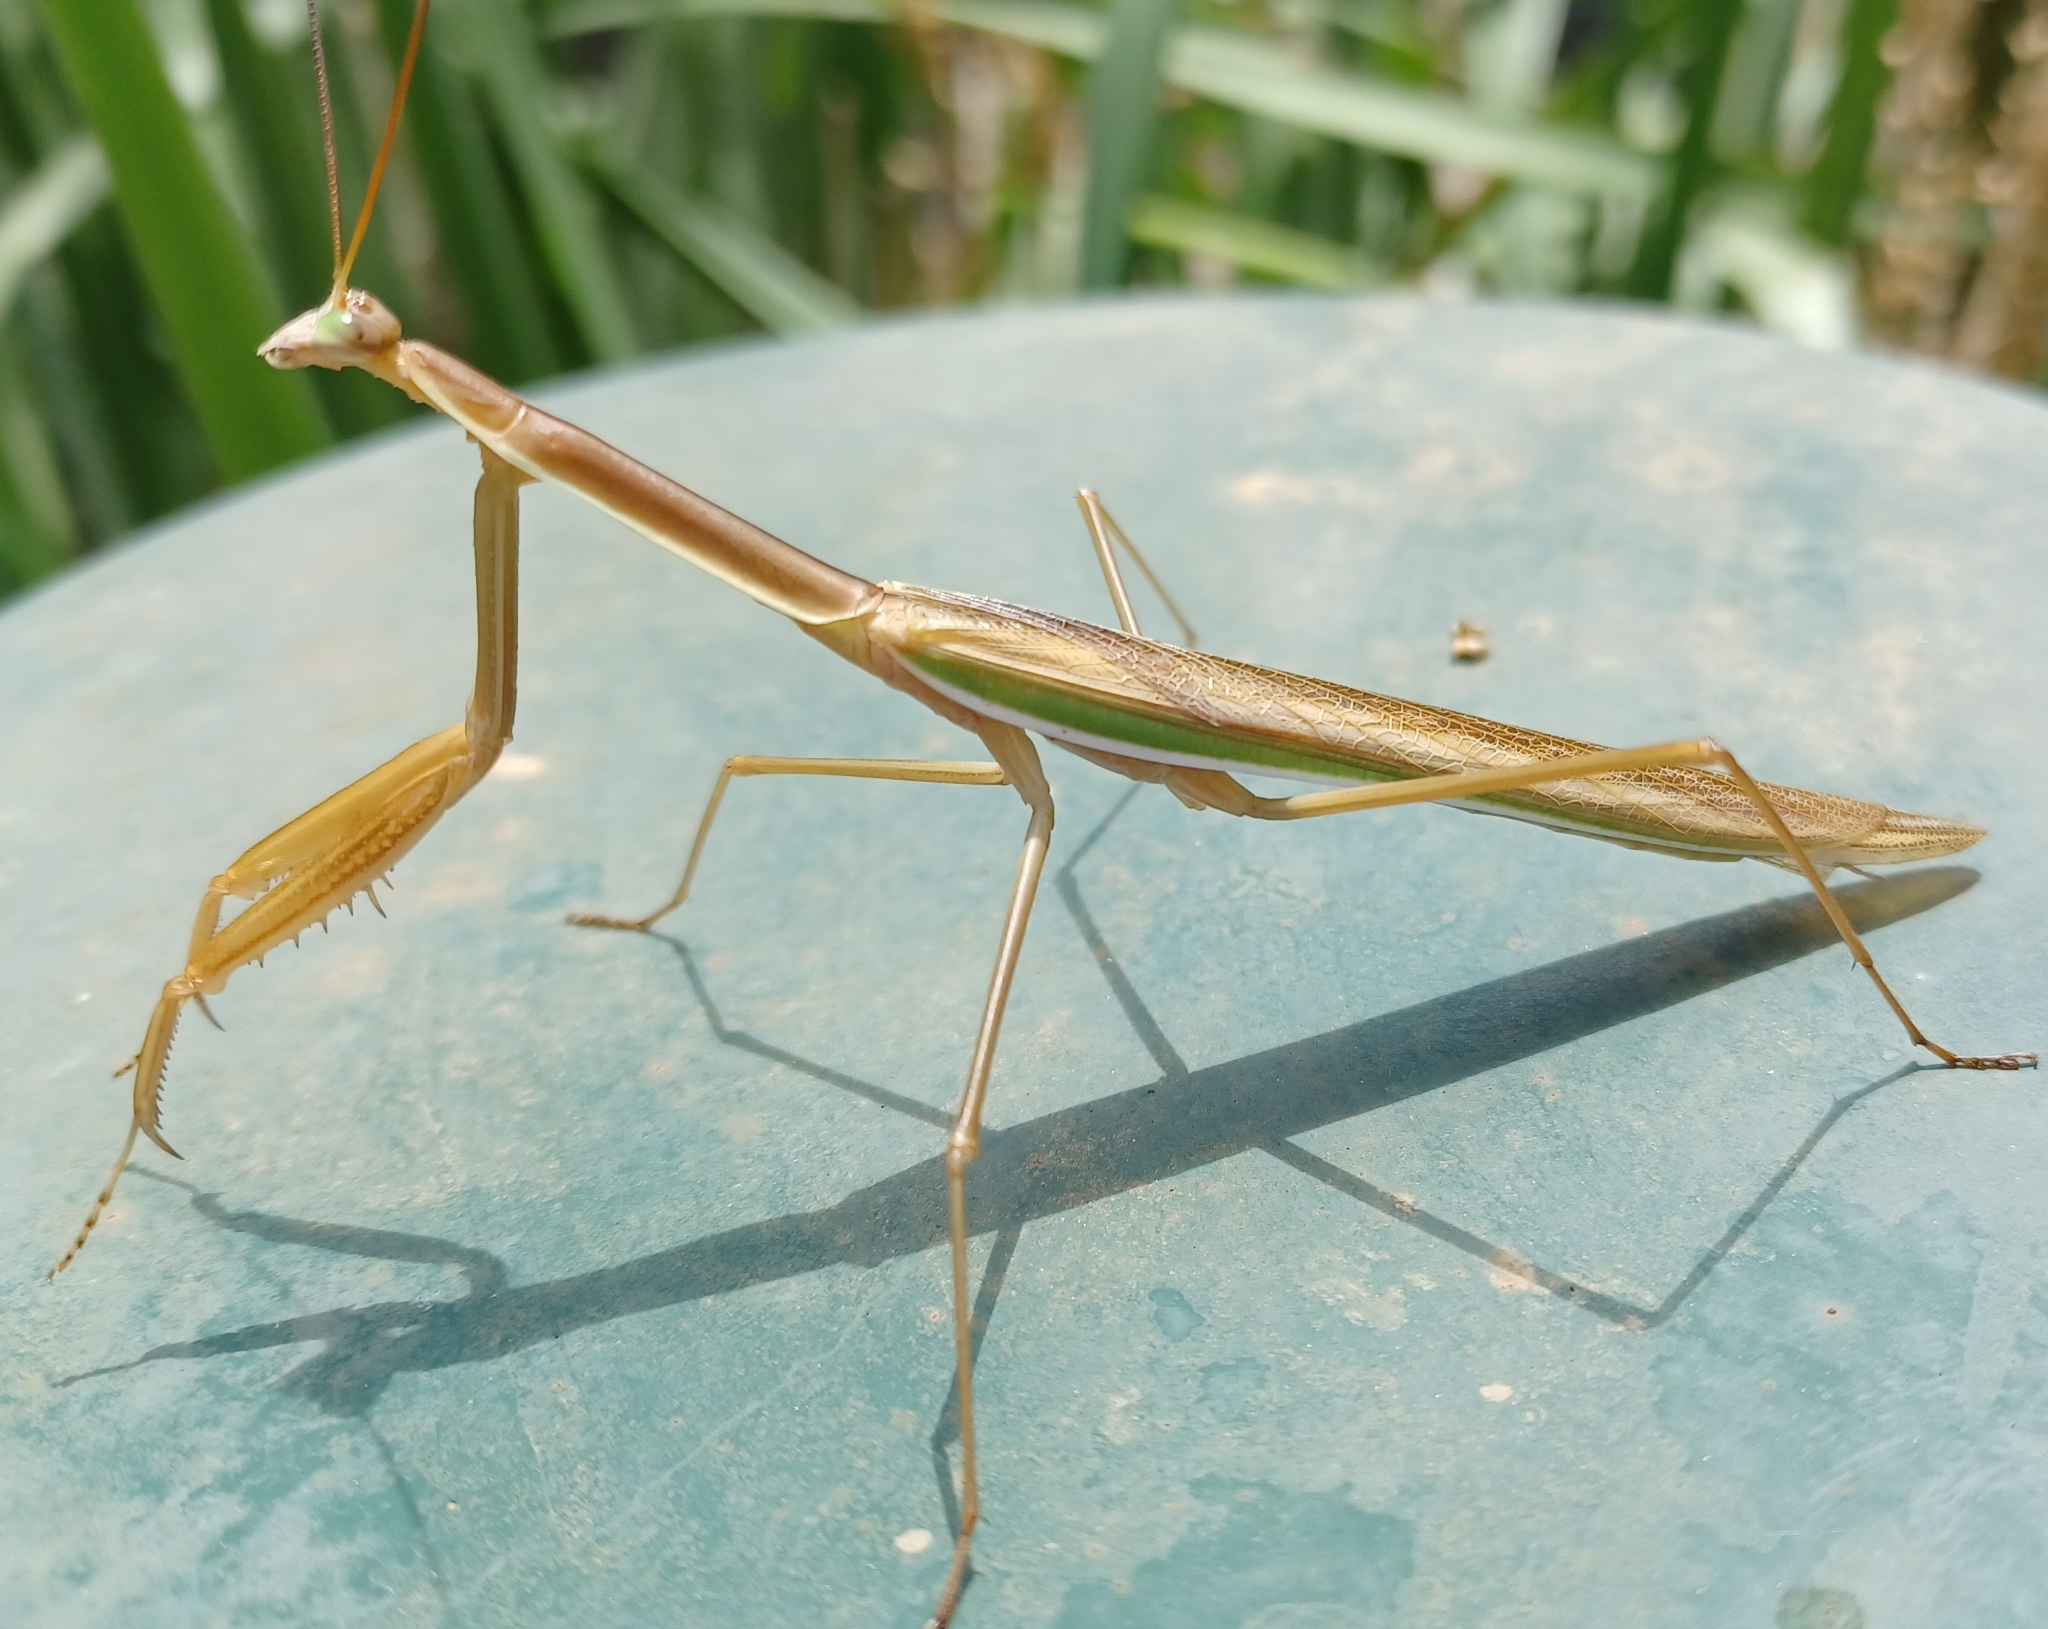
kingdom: Animalia
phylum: Arthropoda
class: Insecta
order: Mantodea
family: Mantidae
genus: Tenodera
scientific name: Tenodera australasiae
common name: Purple-winged mantis
